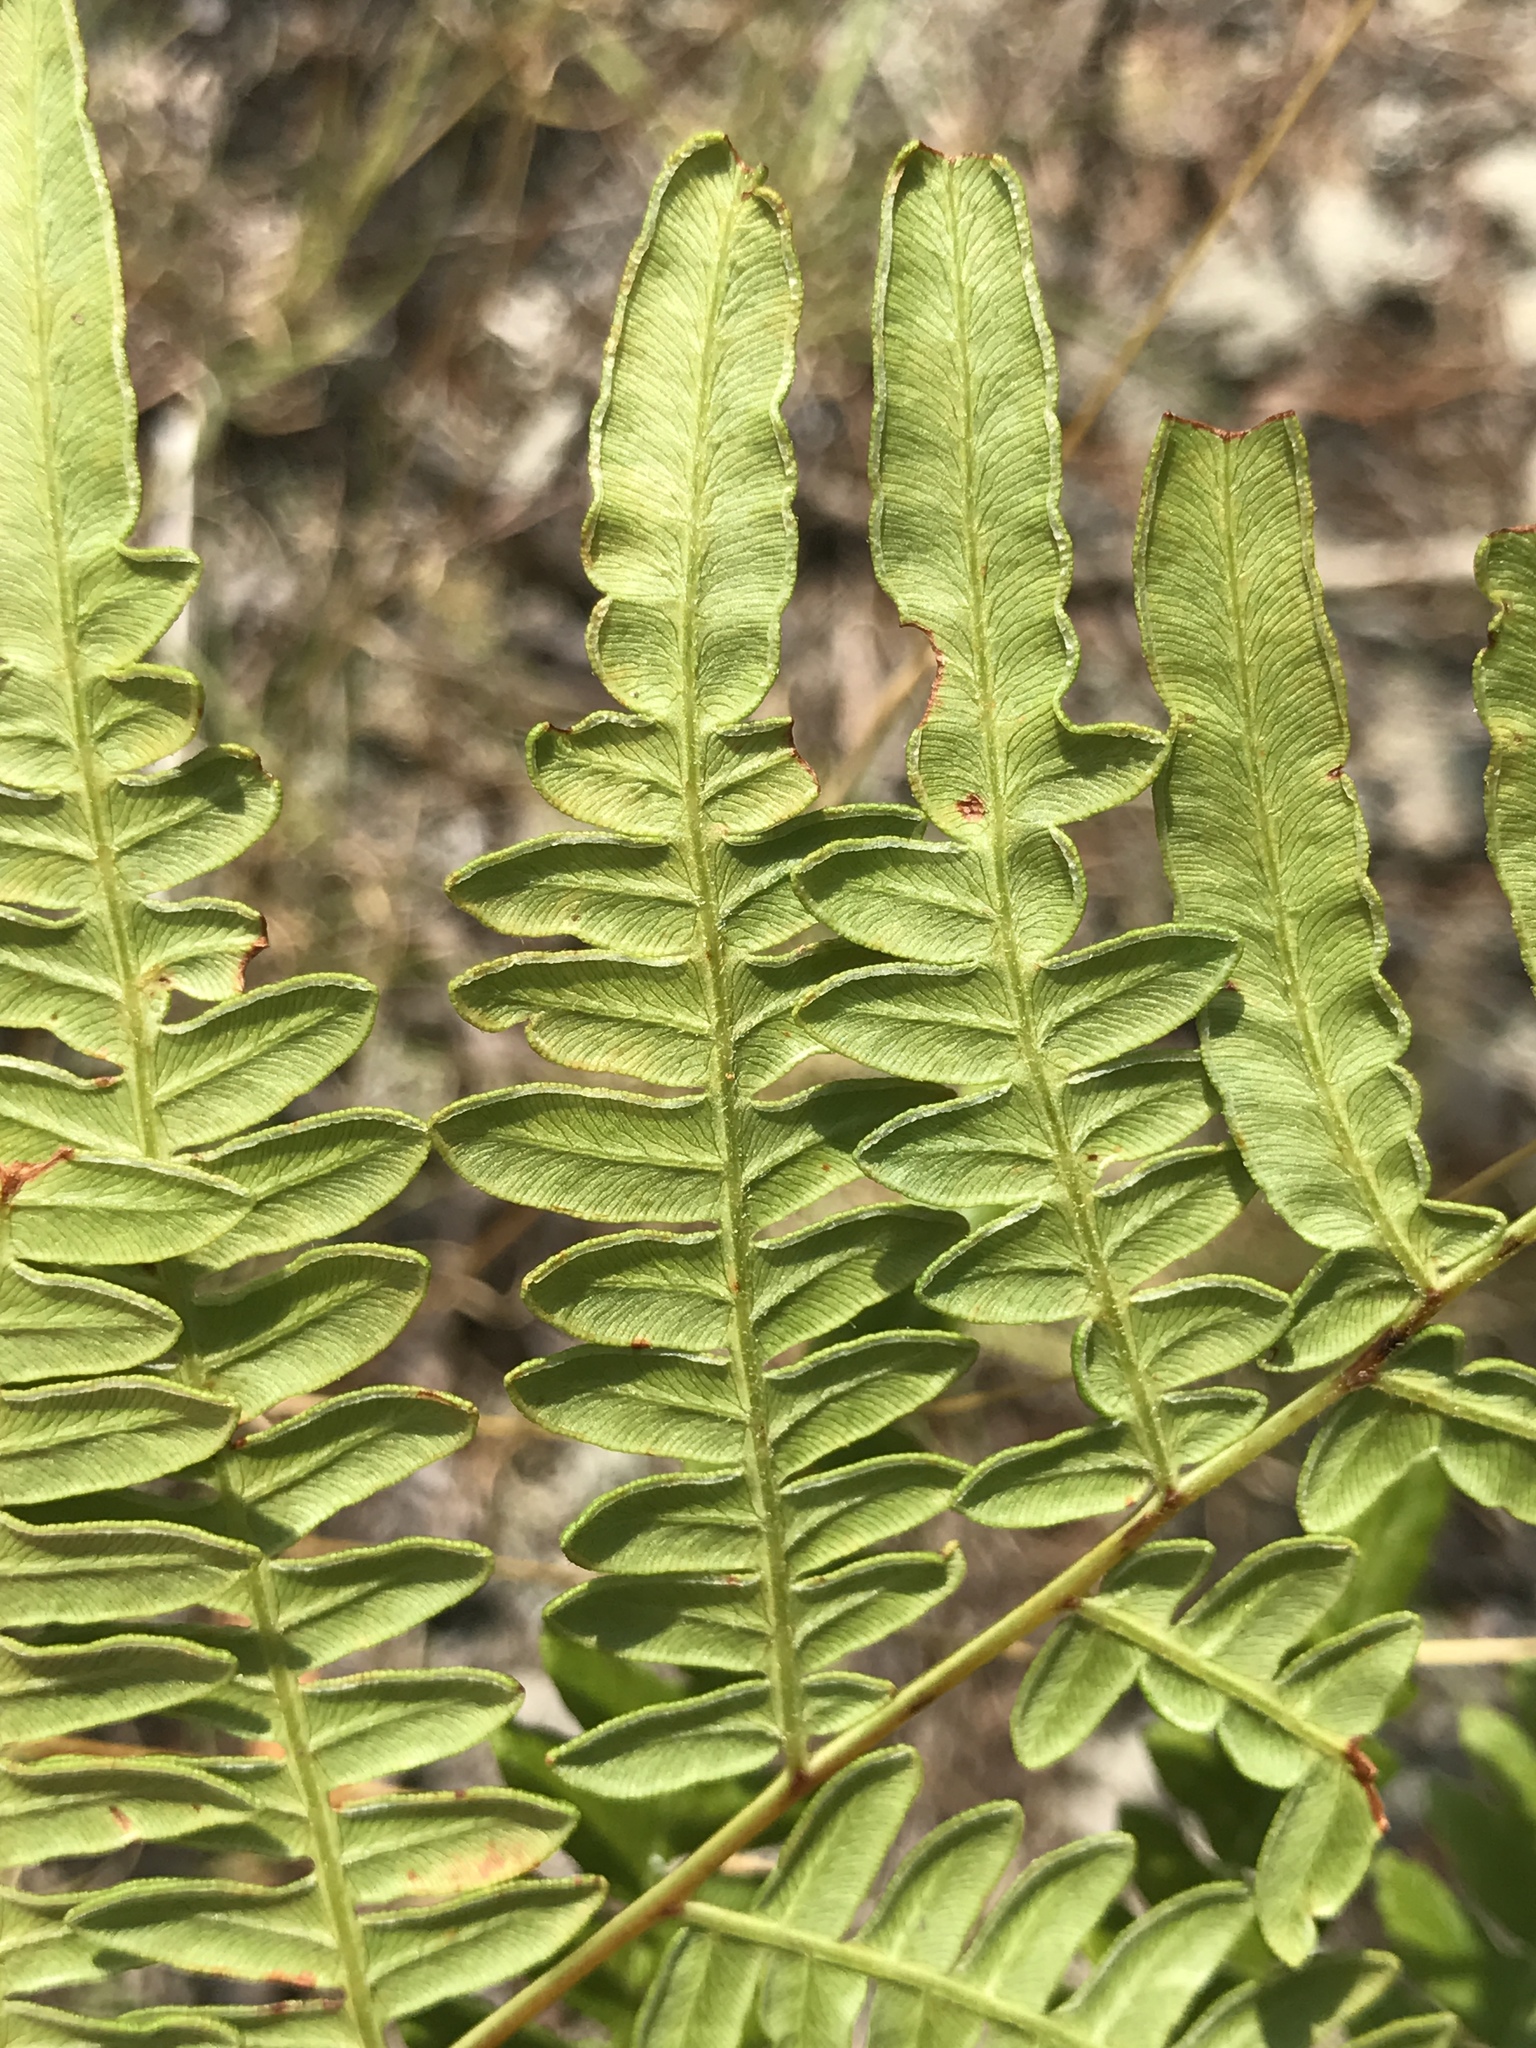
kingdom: Plantae
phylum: Tracheophyta
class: Polypodiopsida
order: Polypodiales
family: Dennstaedtiaceae
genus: Pteridium
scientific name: Pteridium aquilinum
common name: Bracken
